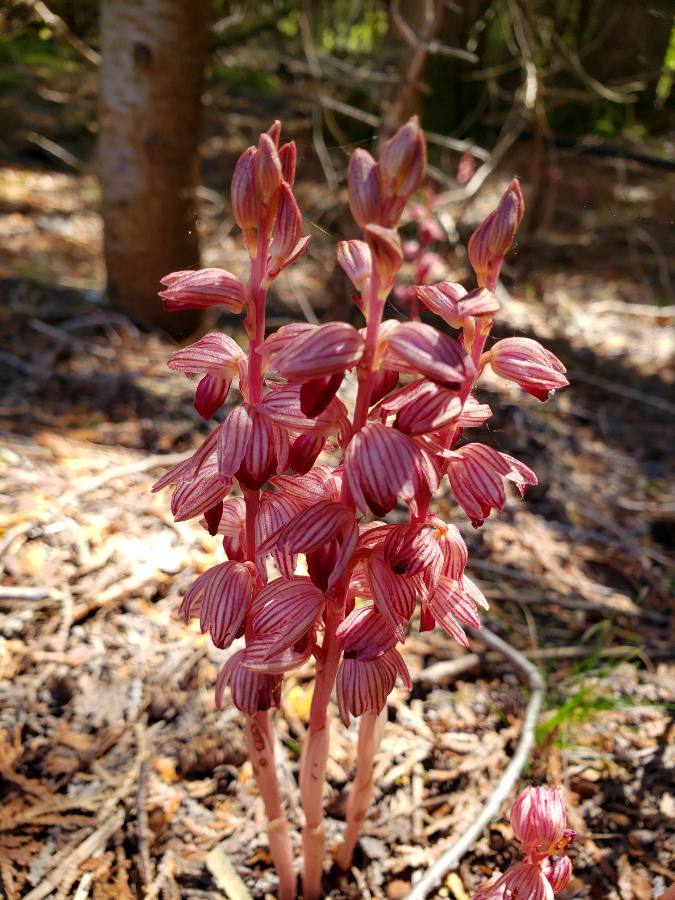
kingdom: Plantae
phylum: Tracheophyta
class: Liliopsida
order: Asparagales
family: Orchidaceae
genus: Corallorhiza
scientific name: Corallorhiza striata
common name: Hooded coralroot
